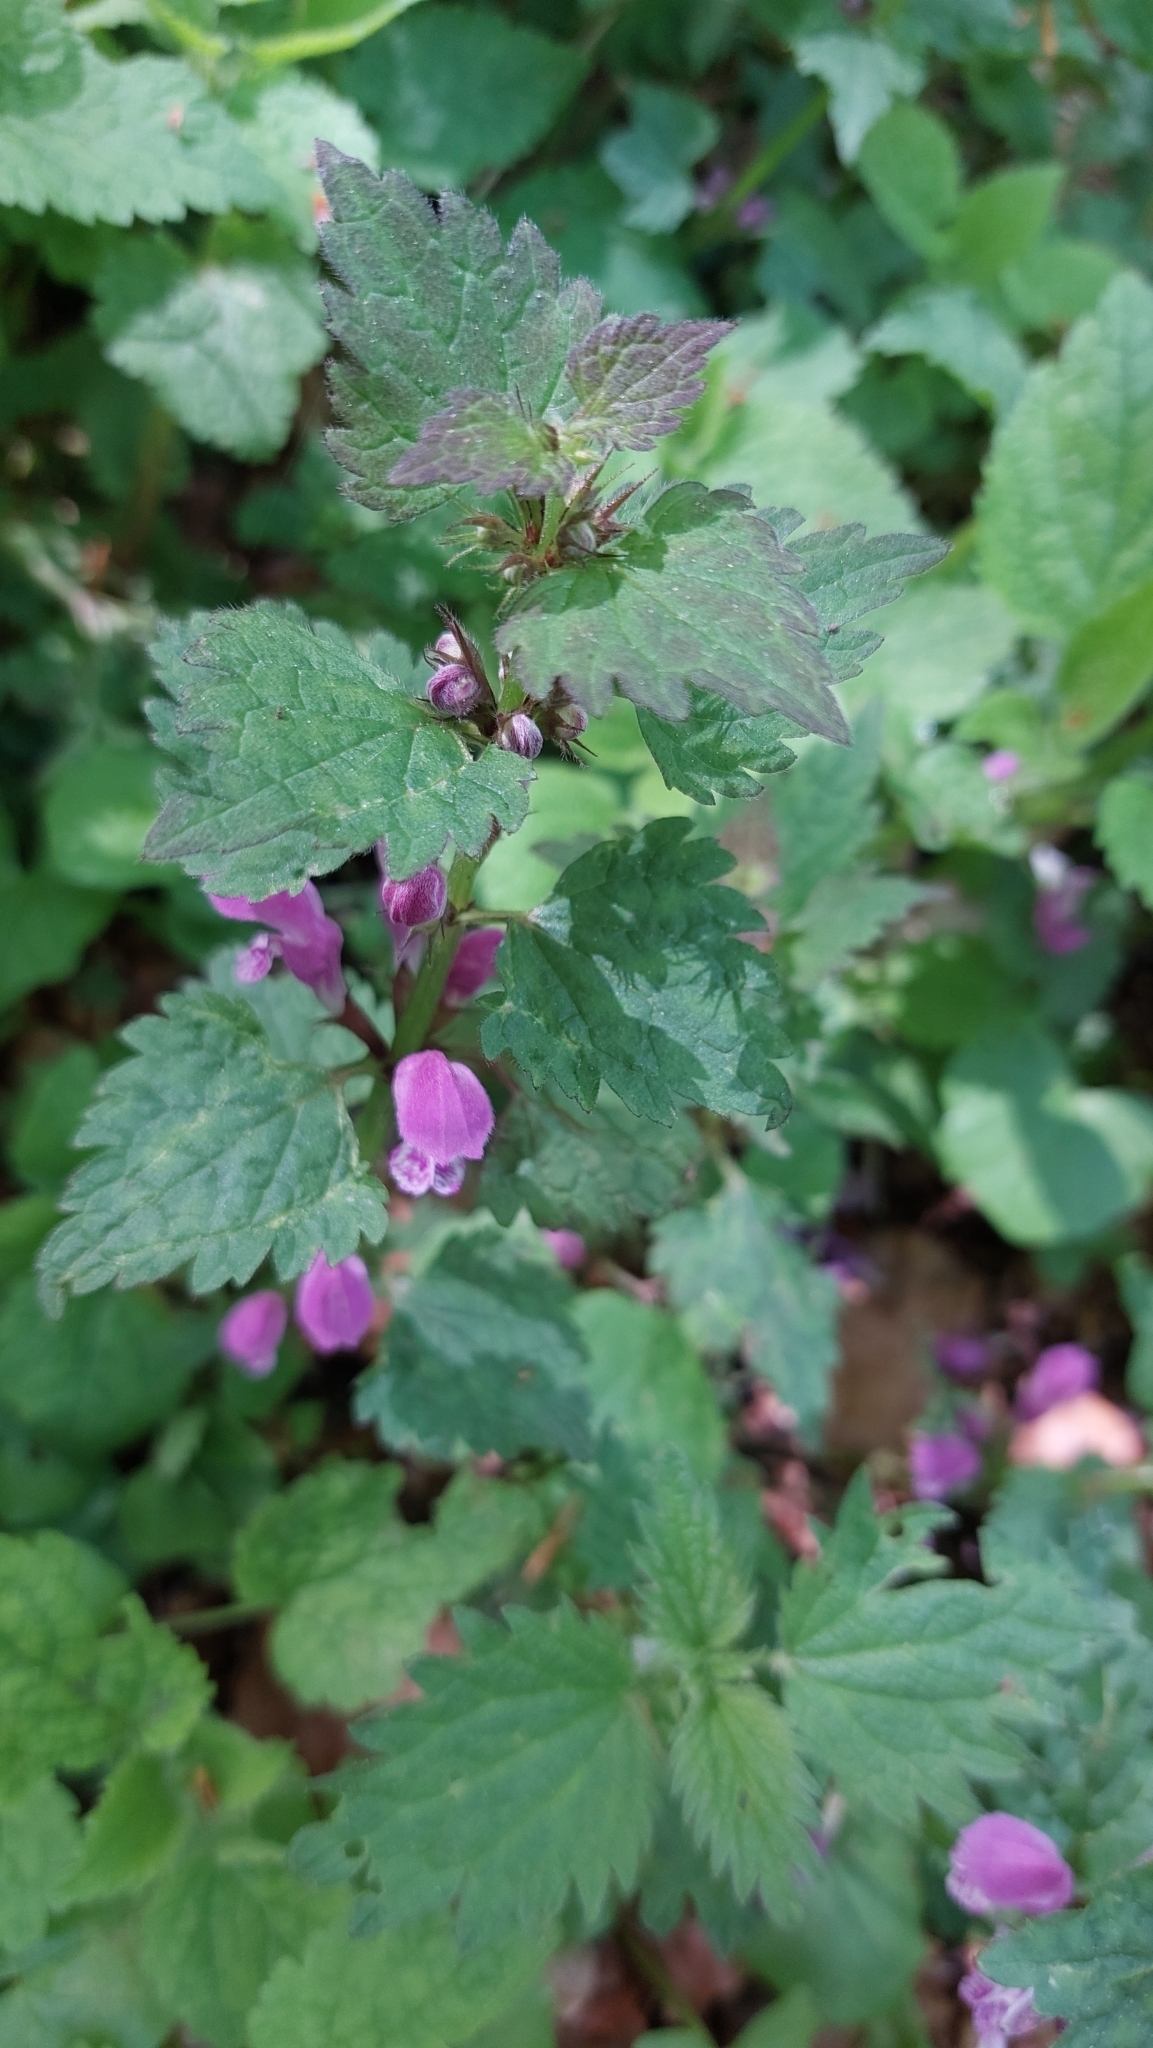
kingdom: Plantae
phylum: Tracheophyta
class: Magnoliopsida
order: Lamiales
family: Lamiaceae
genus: Lamium
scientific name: Lamium maculatum
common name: Spotted dead-nettle
